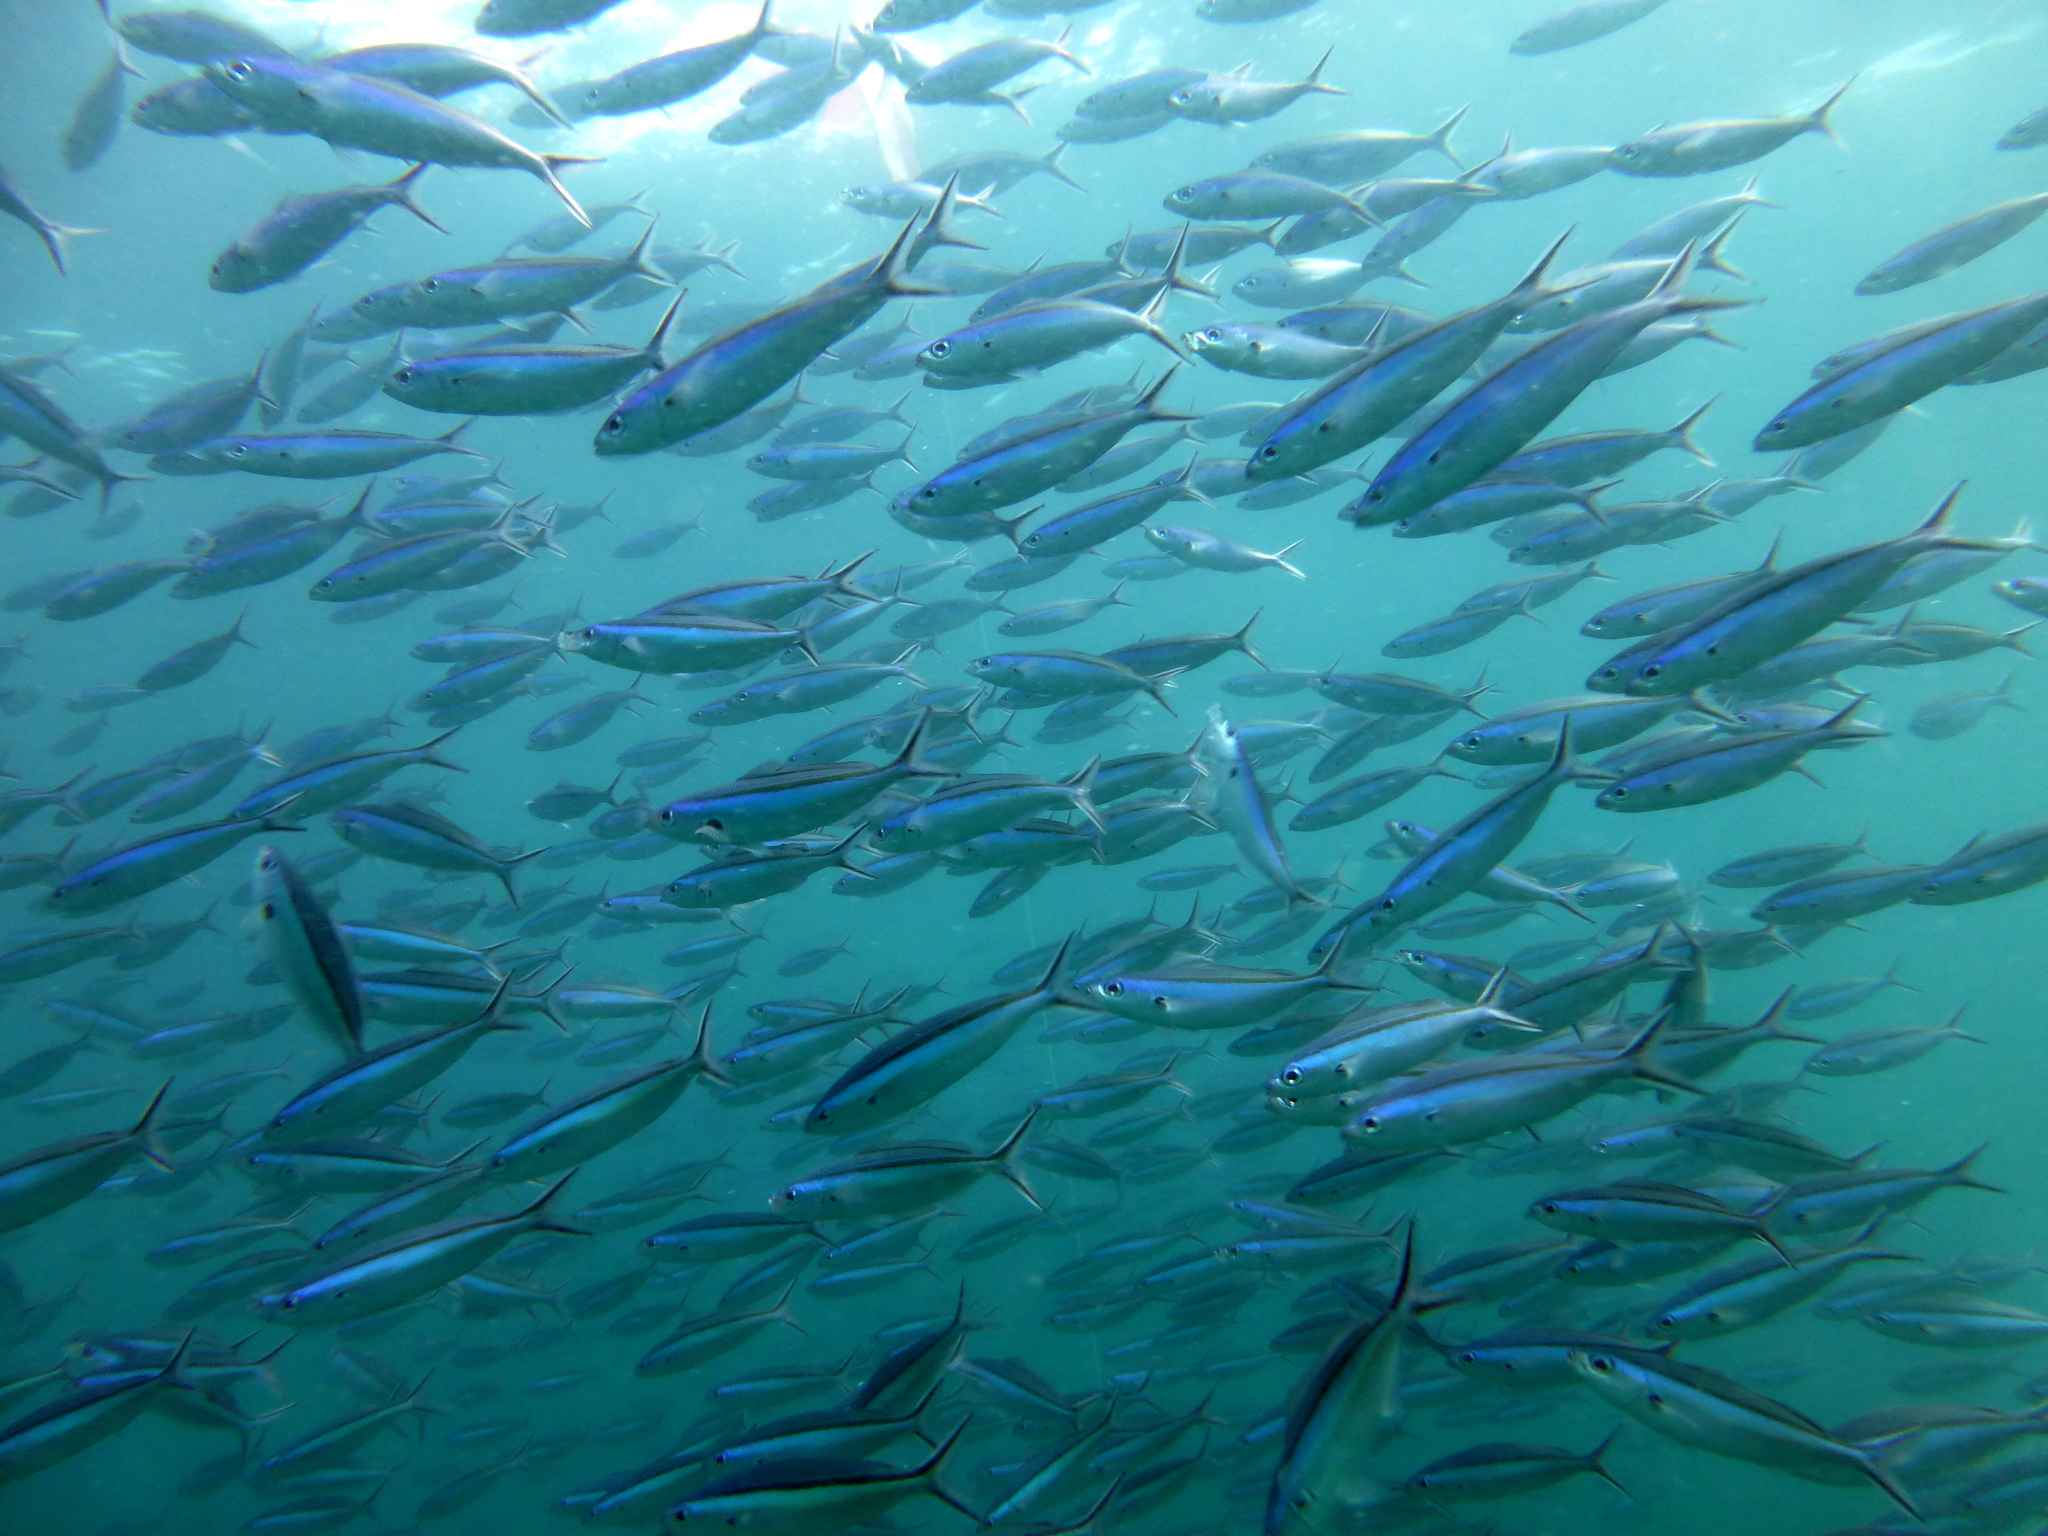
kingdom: Animalia
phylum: Chordata
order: Perciformes
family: Caesionidae
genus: Pterocaesio
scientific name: Pterocaesio tile
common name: Dark-banded fusilier
